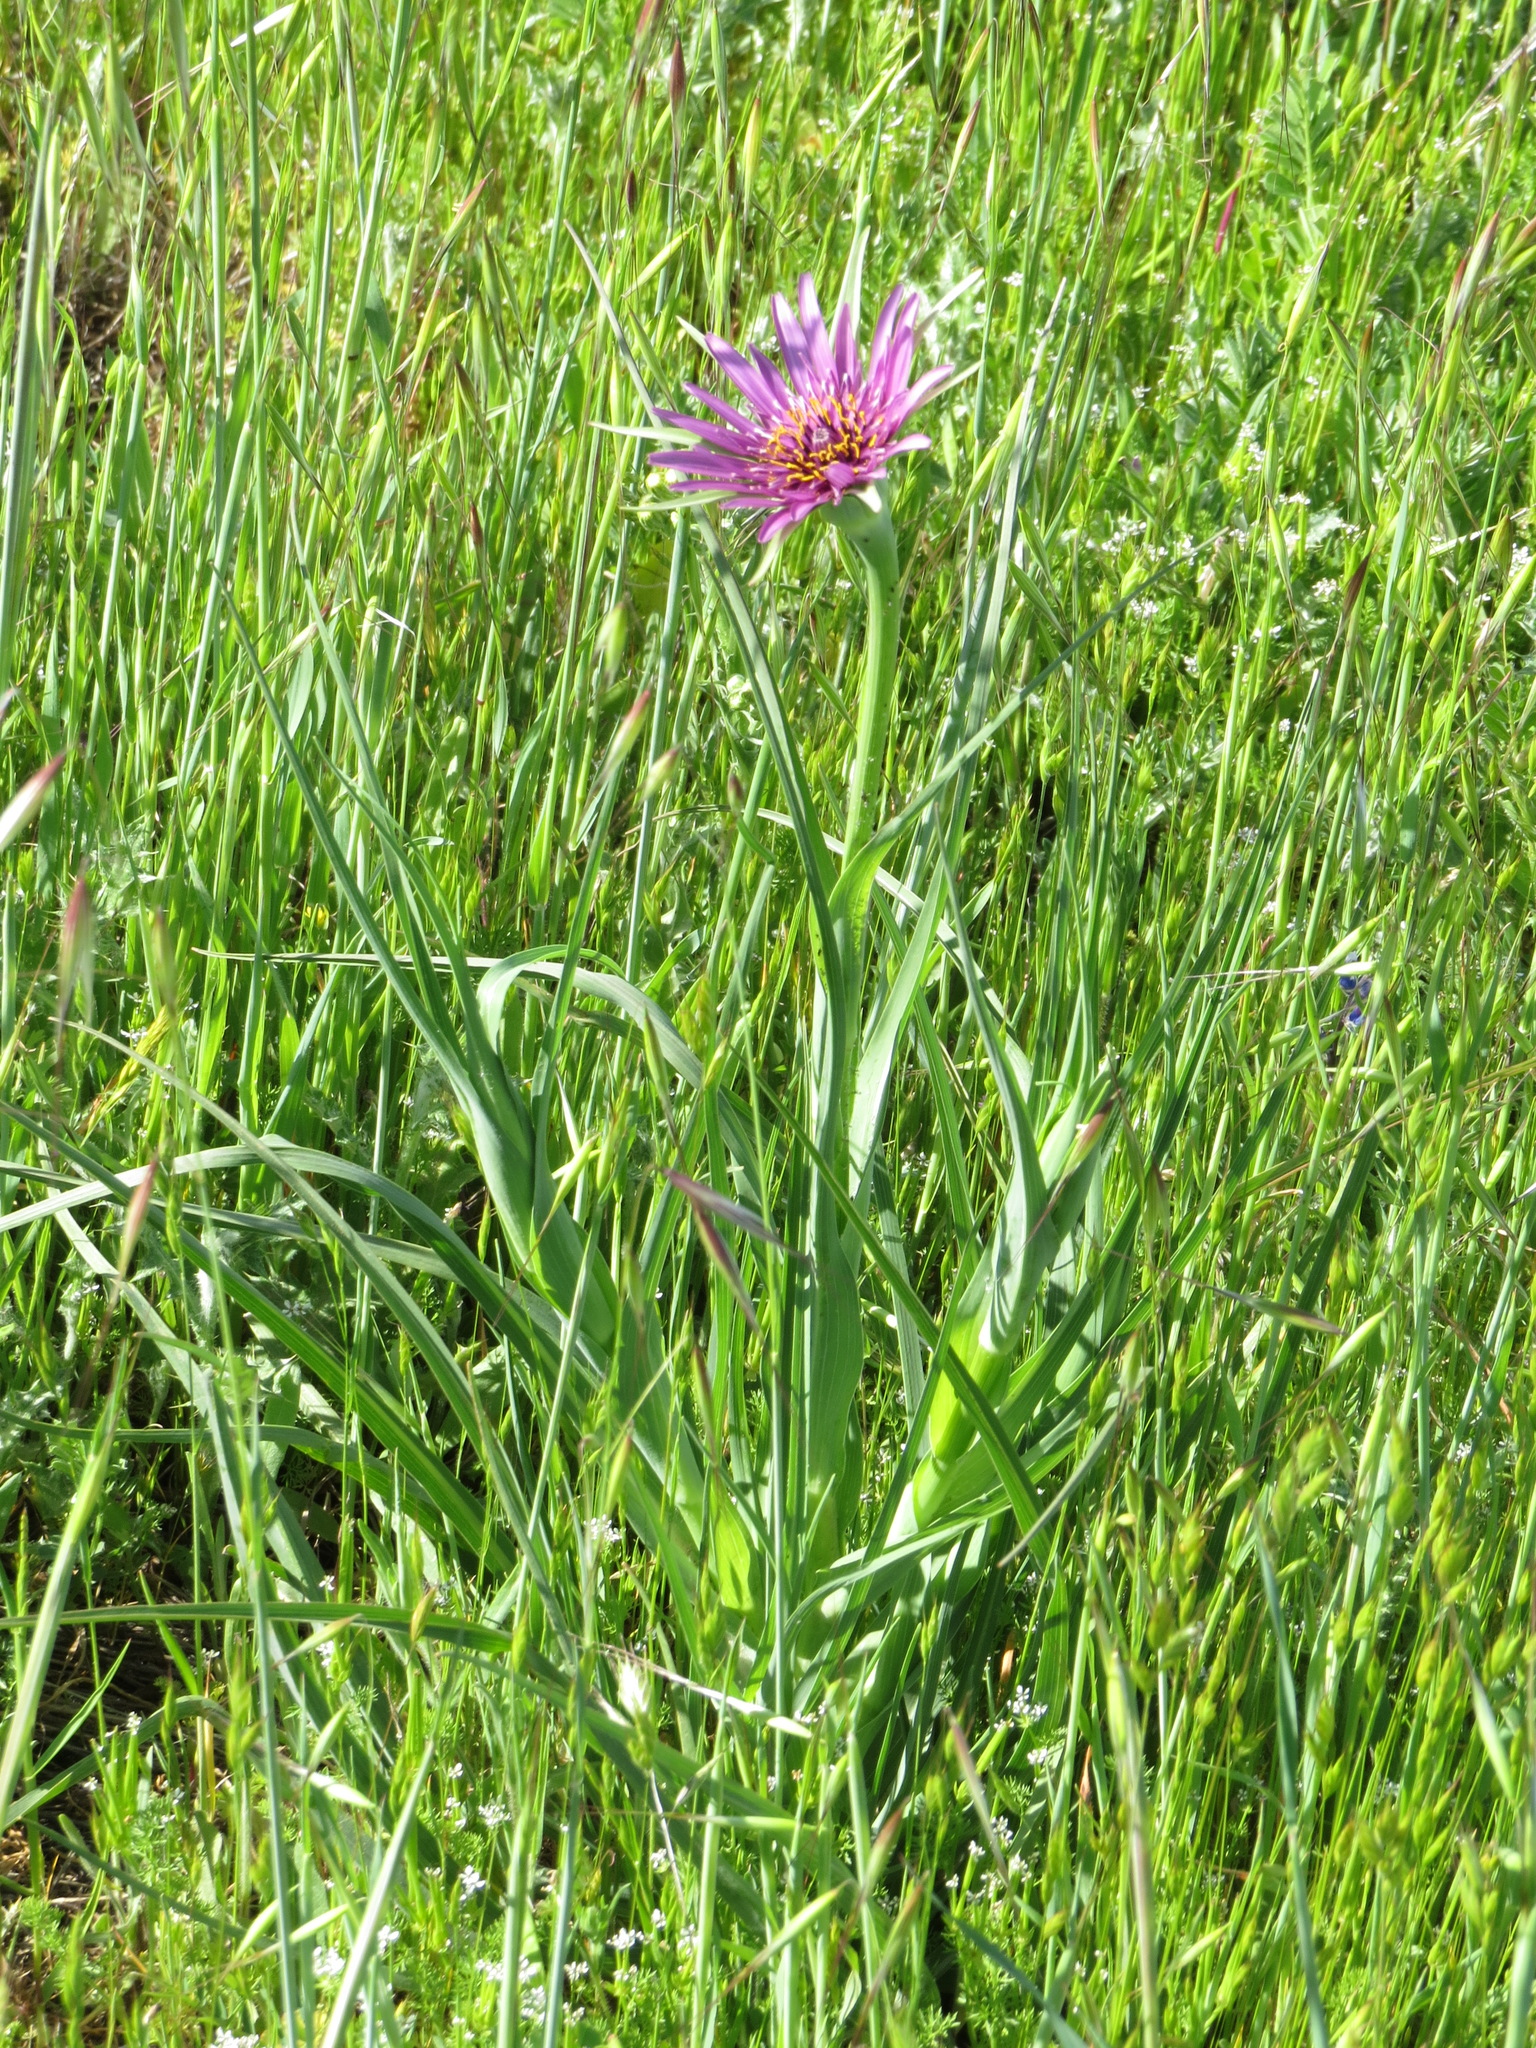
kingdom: Plantae
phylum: Tracheophyta
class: Magnoliopsida
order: Asterales
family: Asteraceae
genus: Tragopogon
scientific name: Tragopogon porrifolius
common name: Salsify
